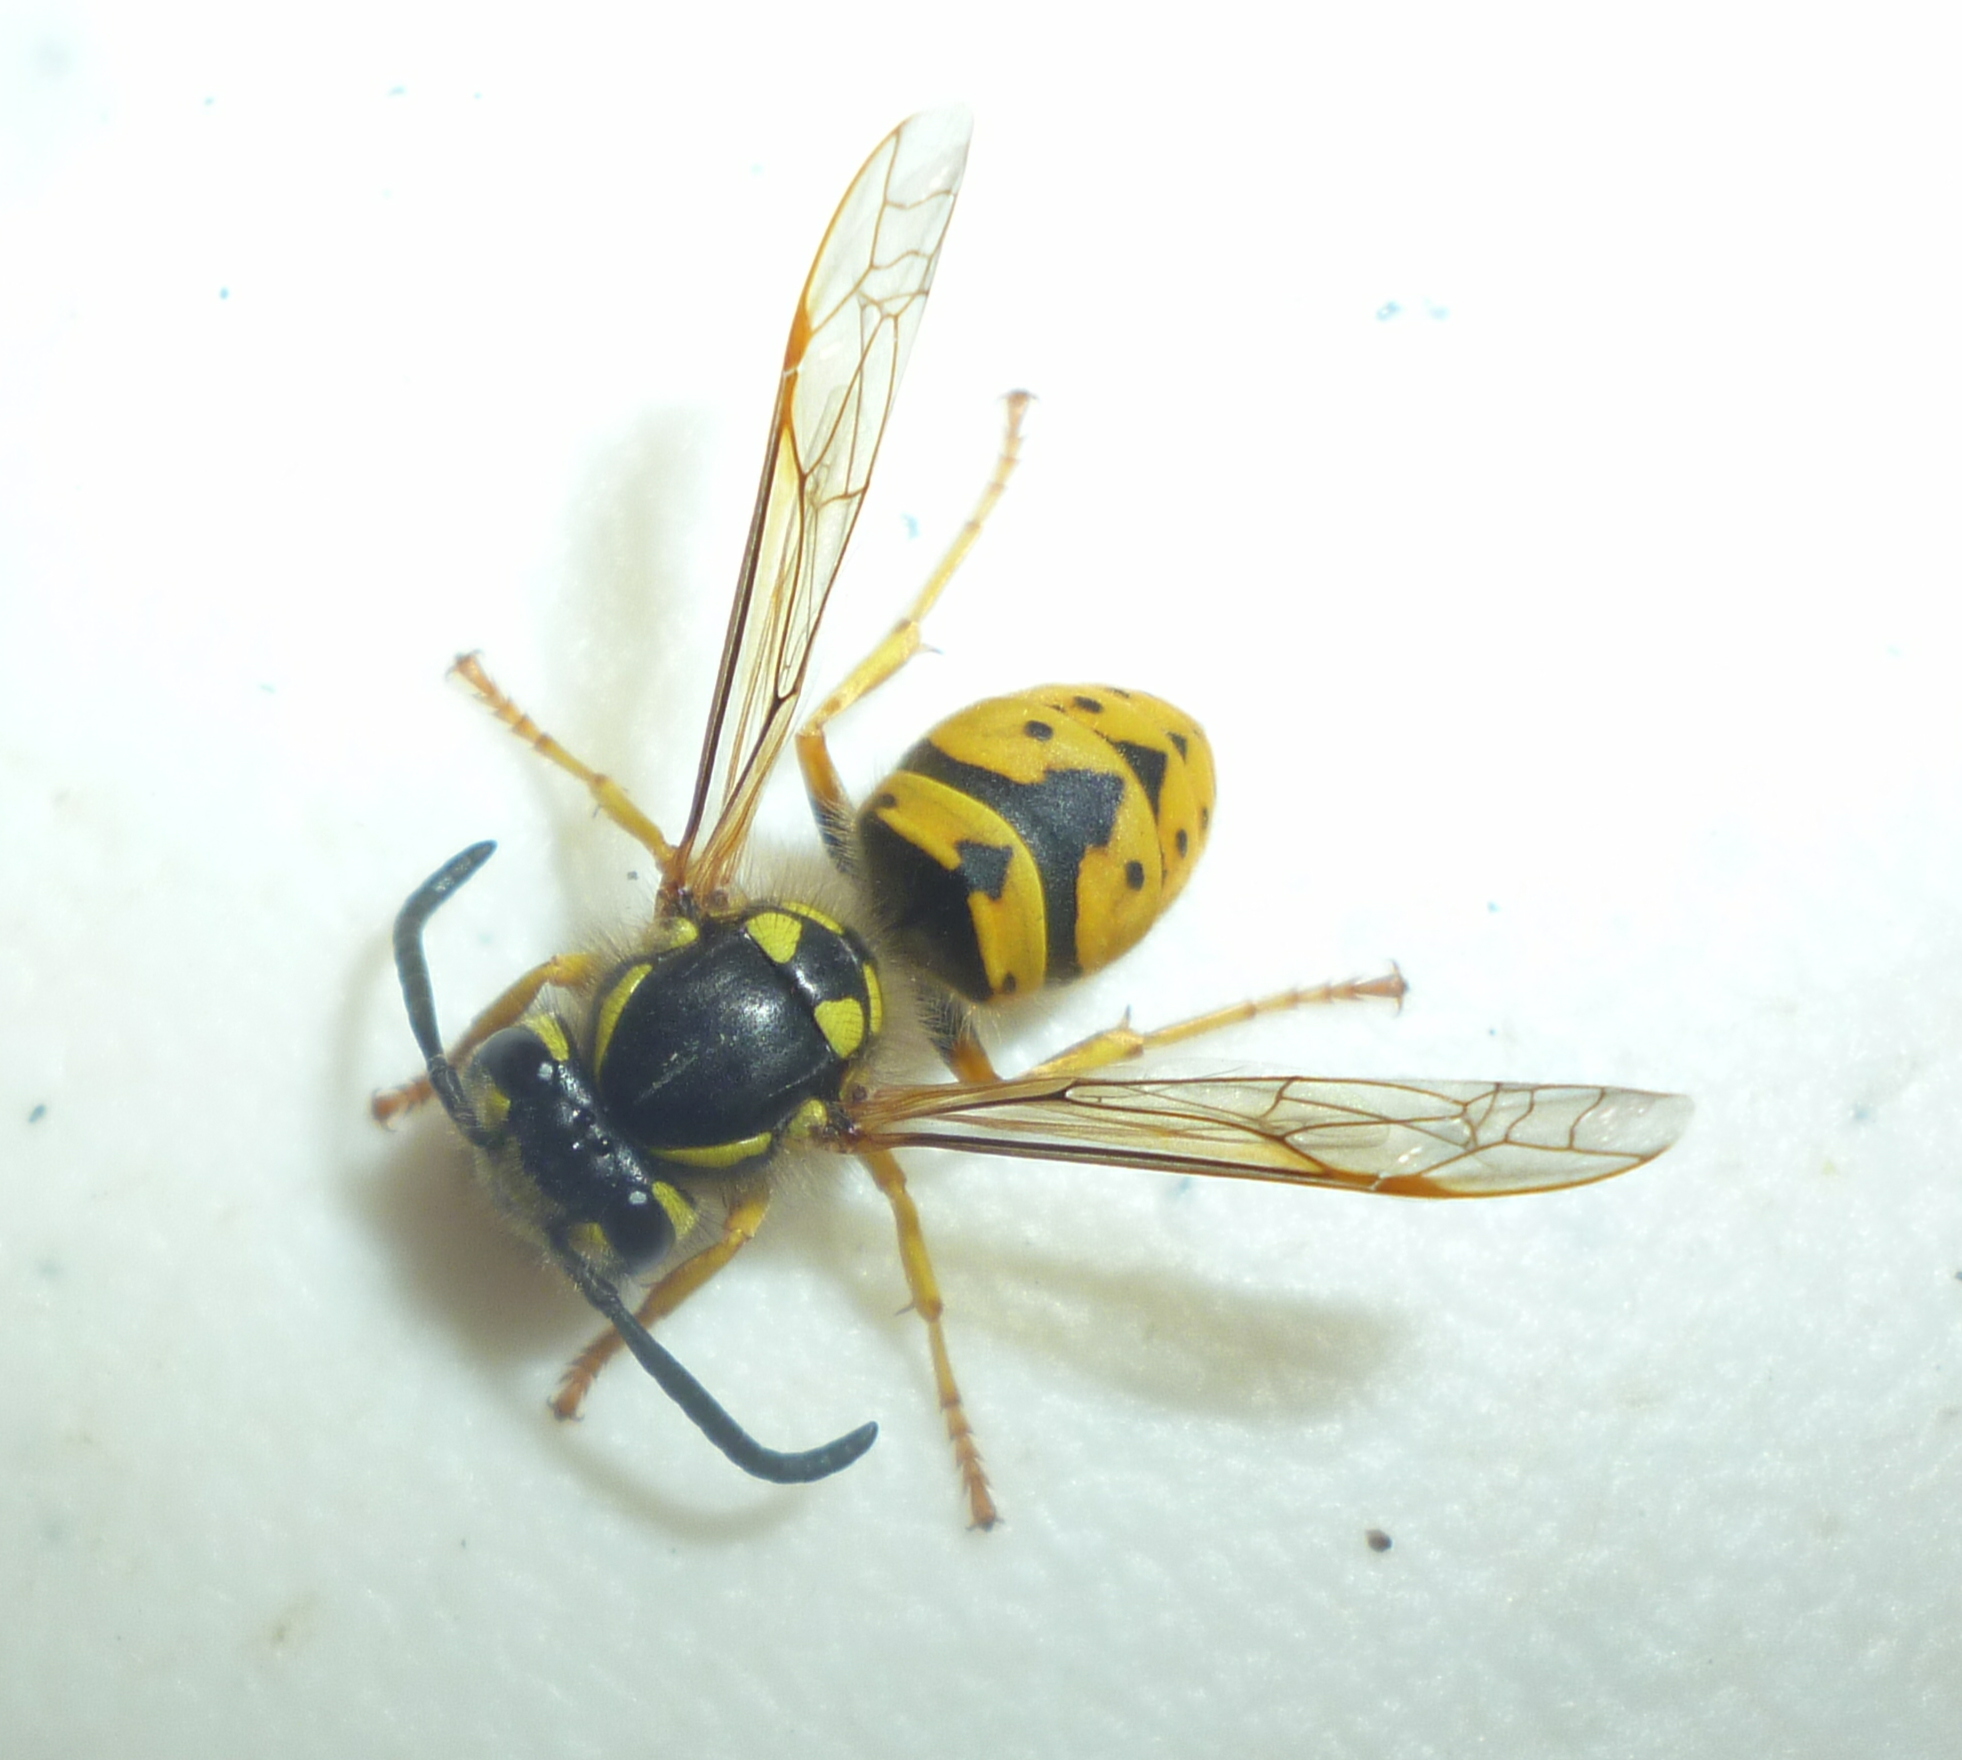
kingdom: Animalia
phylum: Arthropoda
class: Insecta
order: Hymenoptera
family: Vespidae
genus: Vespula
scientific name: Vespula germanica
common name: German wasp
